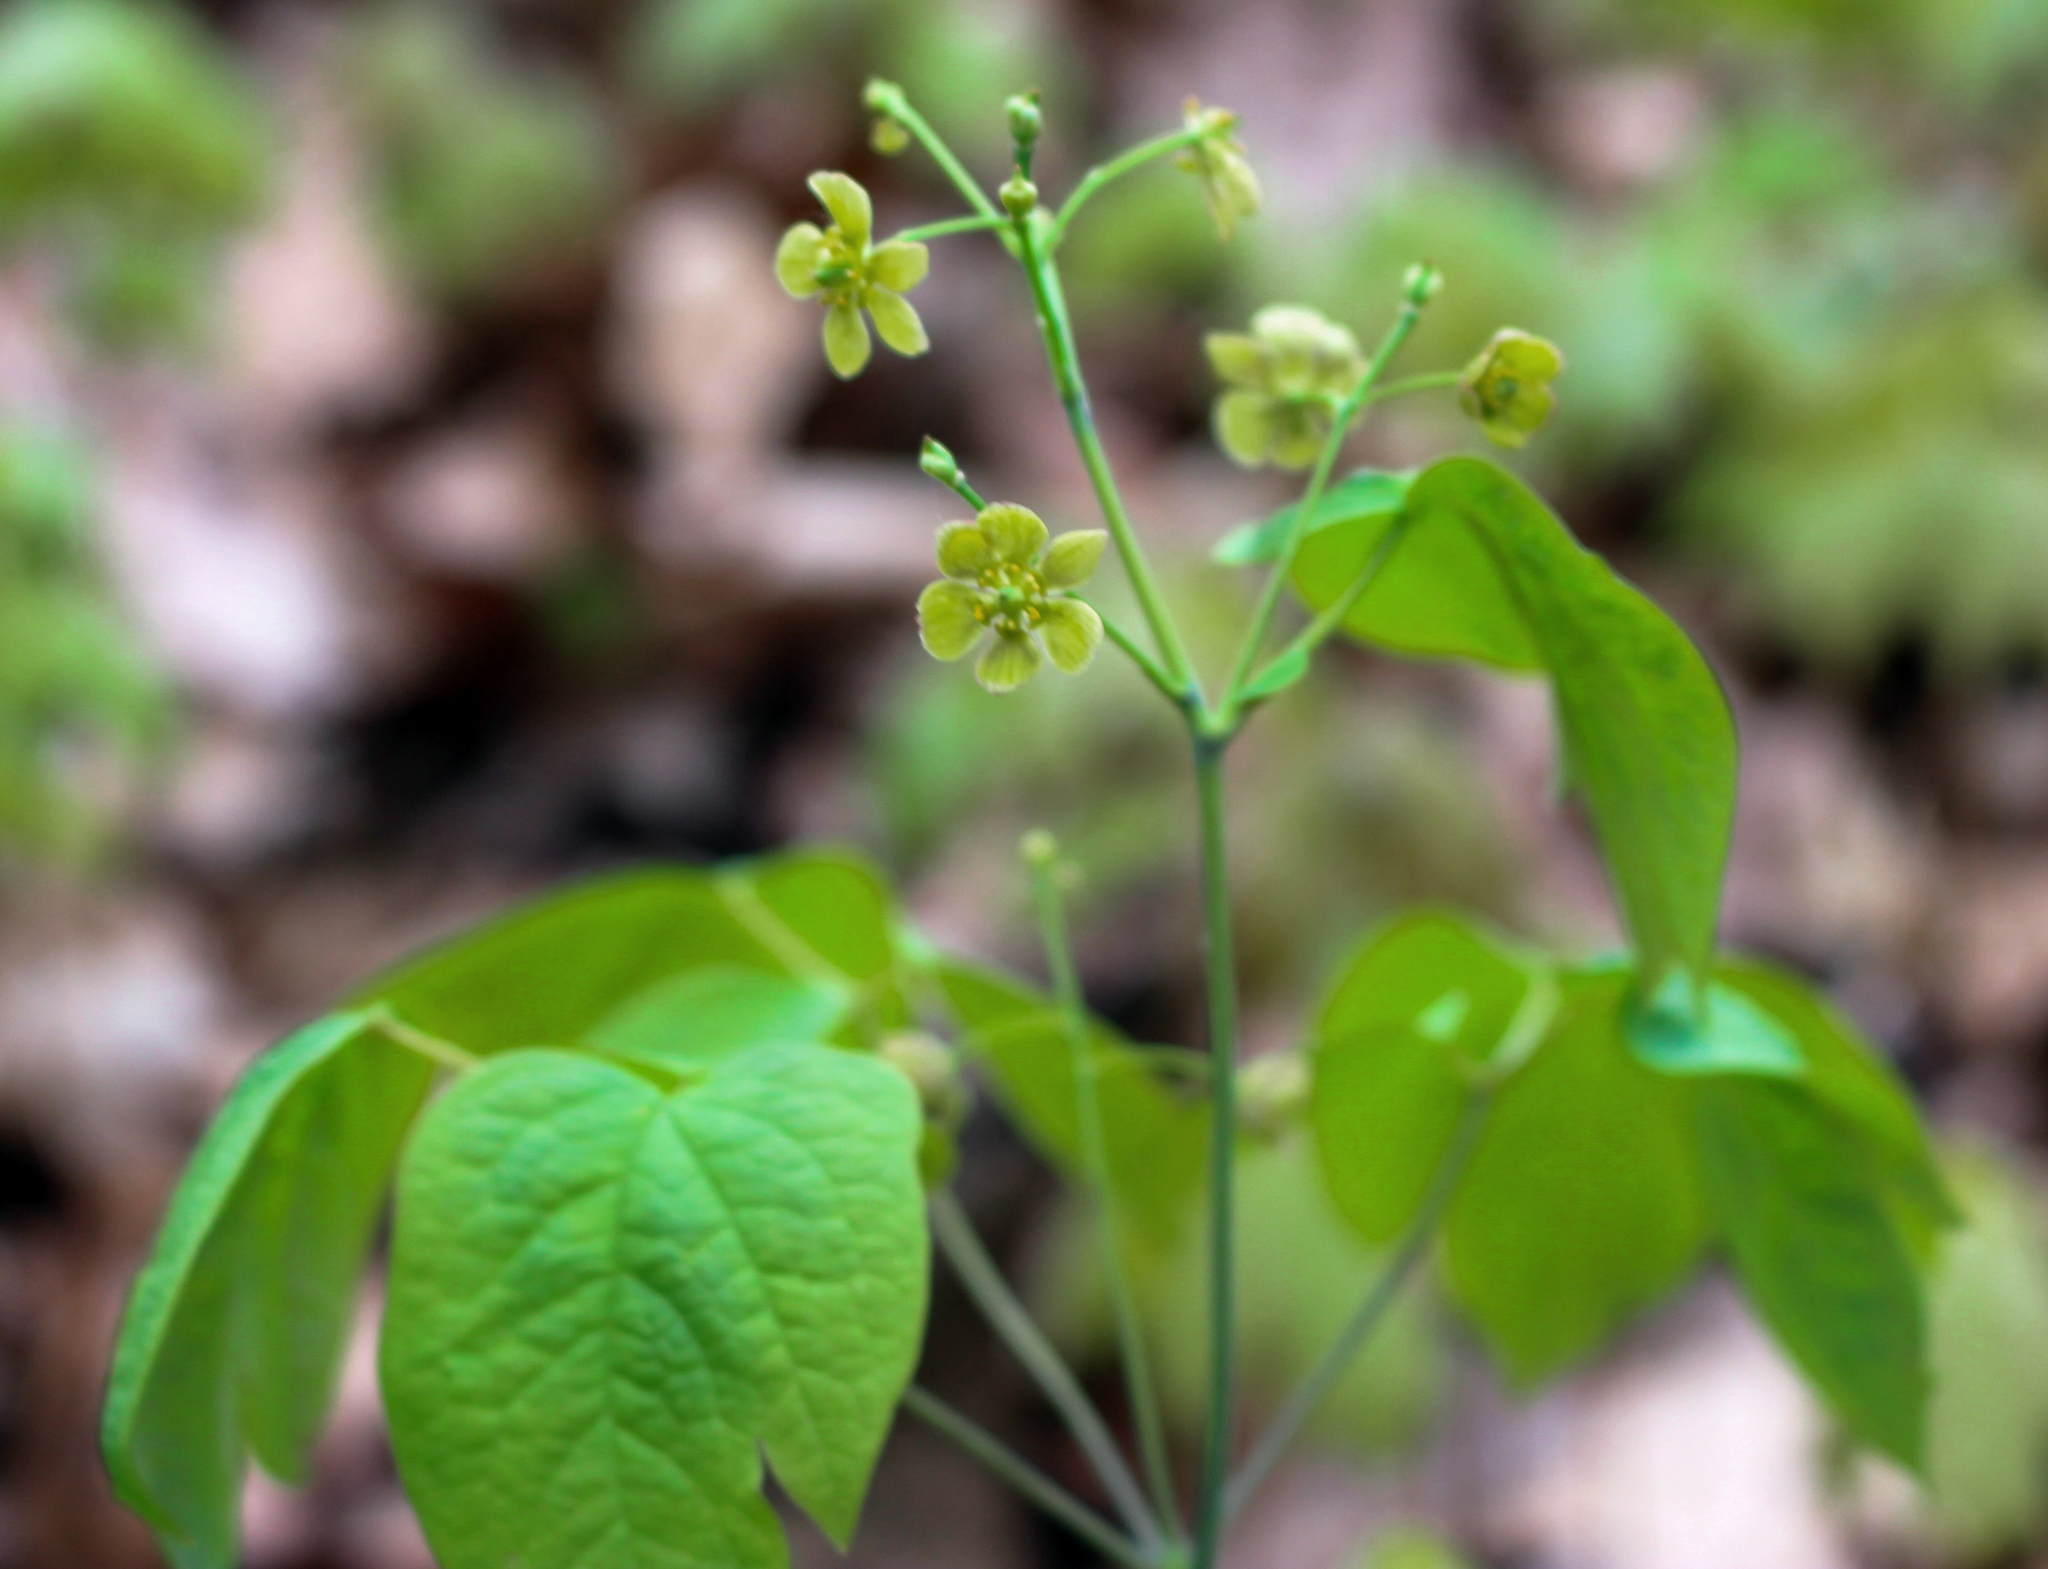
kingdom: Plantae
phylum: Tracheophyta
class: Magnoliopsida
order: Ranunculales
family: Berberidaceae
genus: Caulophyllum
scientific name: Caulophyllum thalictroides
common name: Blue cohosh
